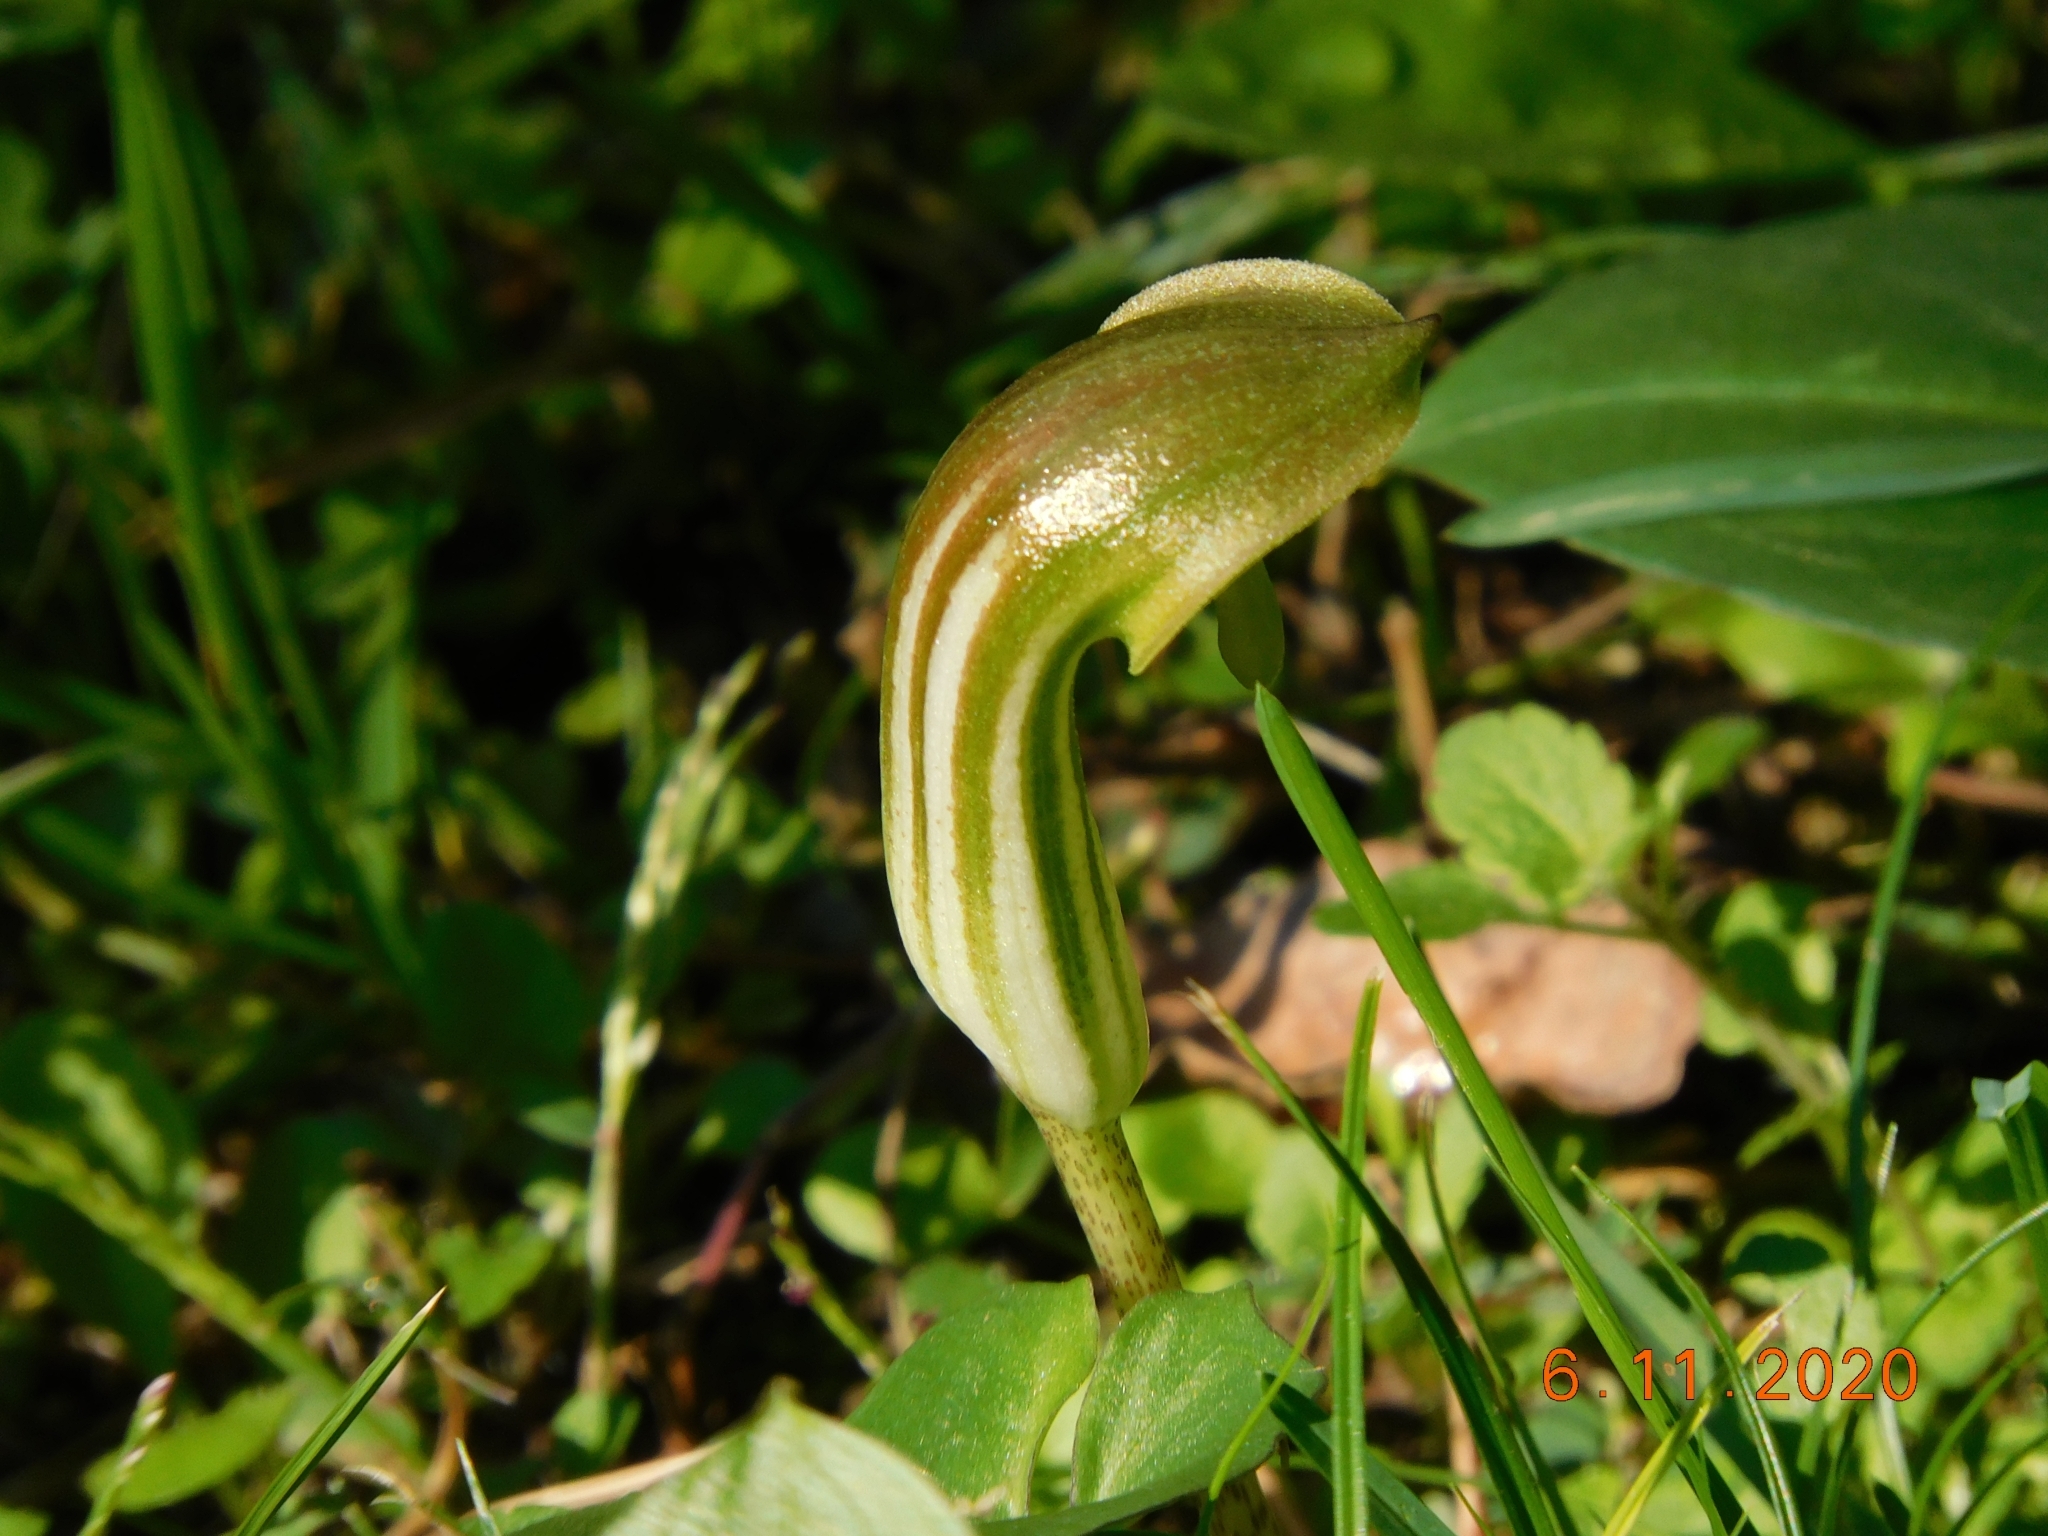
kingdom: Plantae
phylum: Tracheophyta
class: Liliopsida
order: Alismatales
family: Araceae
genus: Arisarum
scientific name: Arisarum vulgare
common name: Common arisarum
